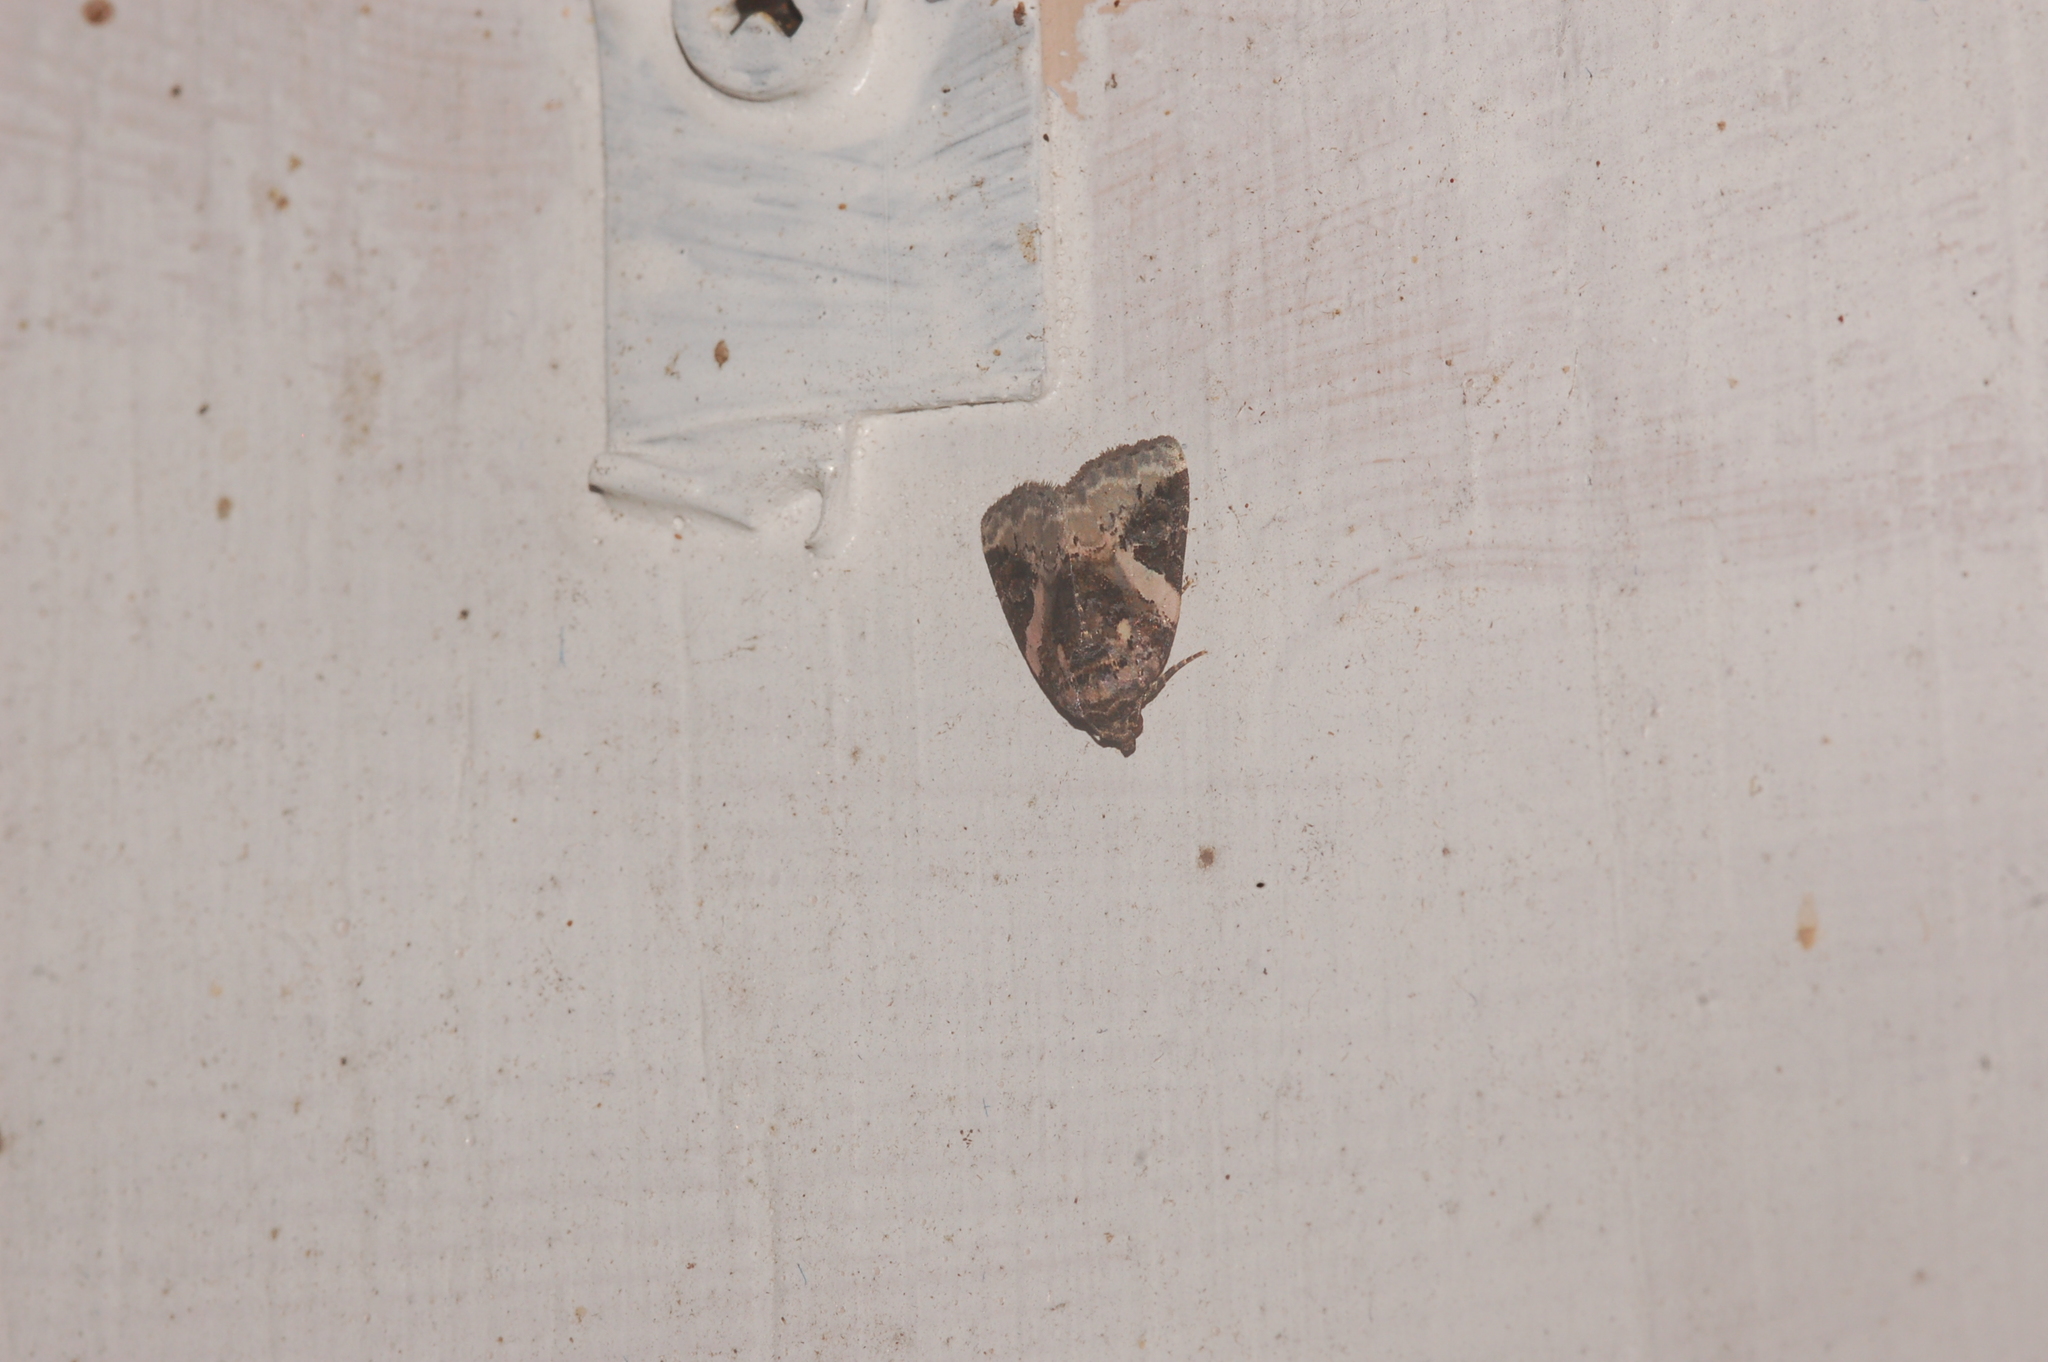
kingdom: Animalia
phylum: Arthropoda
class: Insecta
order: Lepidoptera
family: Noctuidae
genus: Pseudeustrotia
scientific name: Pseudeustrotia carneola
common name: Pink-barred lithacodia moth
